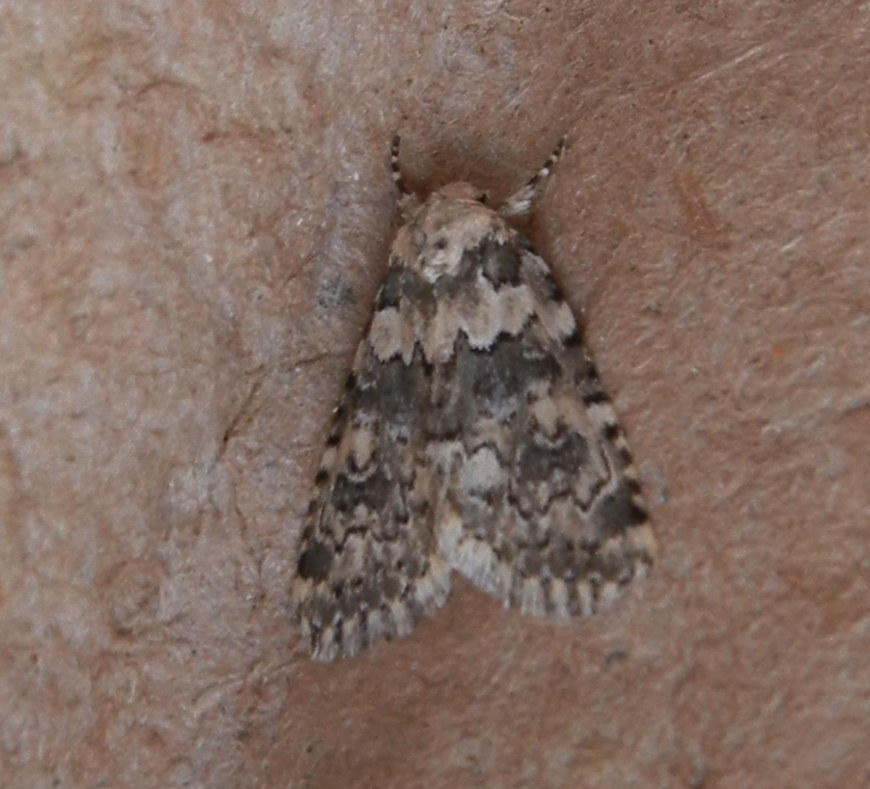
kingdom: Animalia
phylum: Arthropoda
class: Insecta
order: Lepidoptera
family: Noctuidae
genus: Bryophila
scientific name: Bryophila domestica
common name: Marbled beauty
